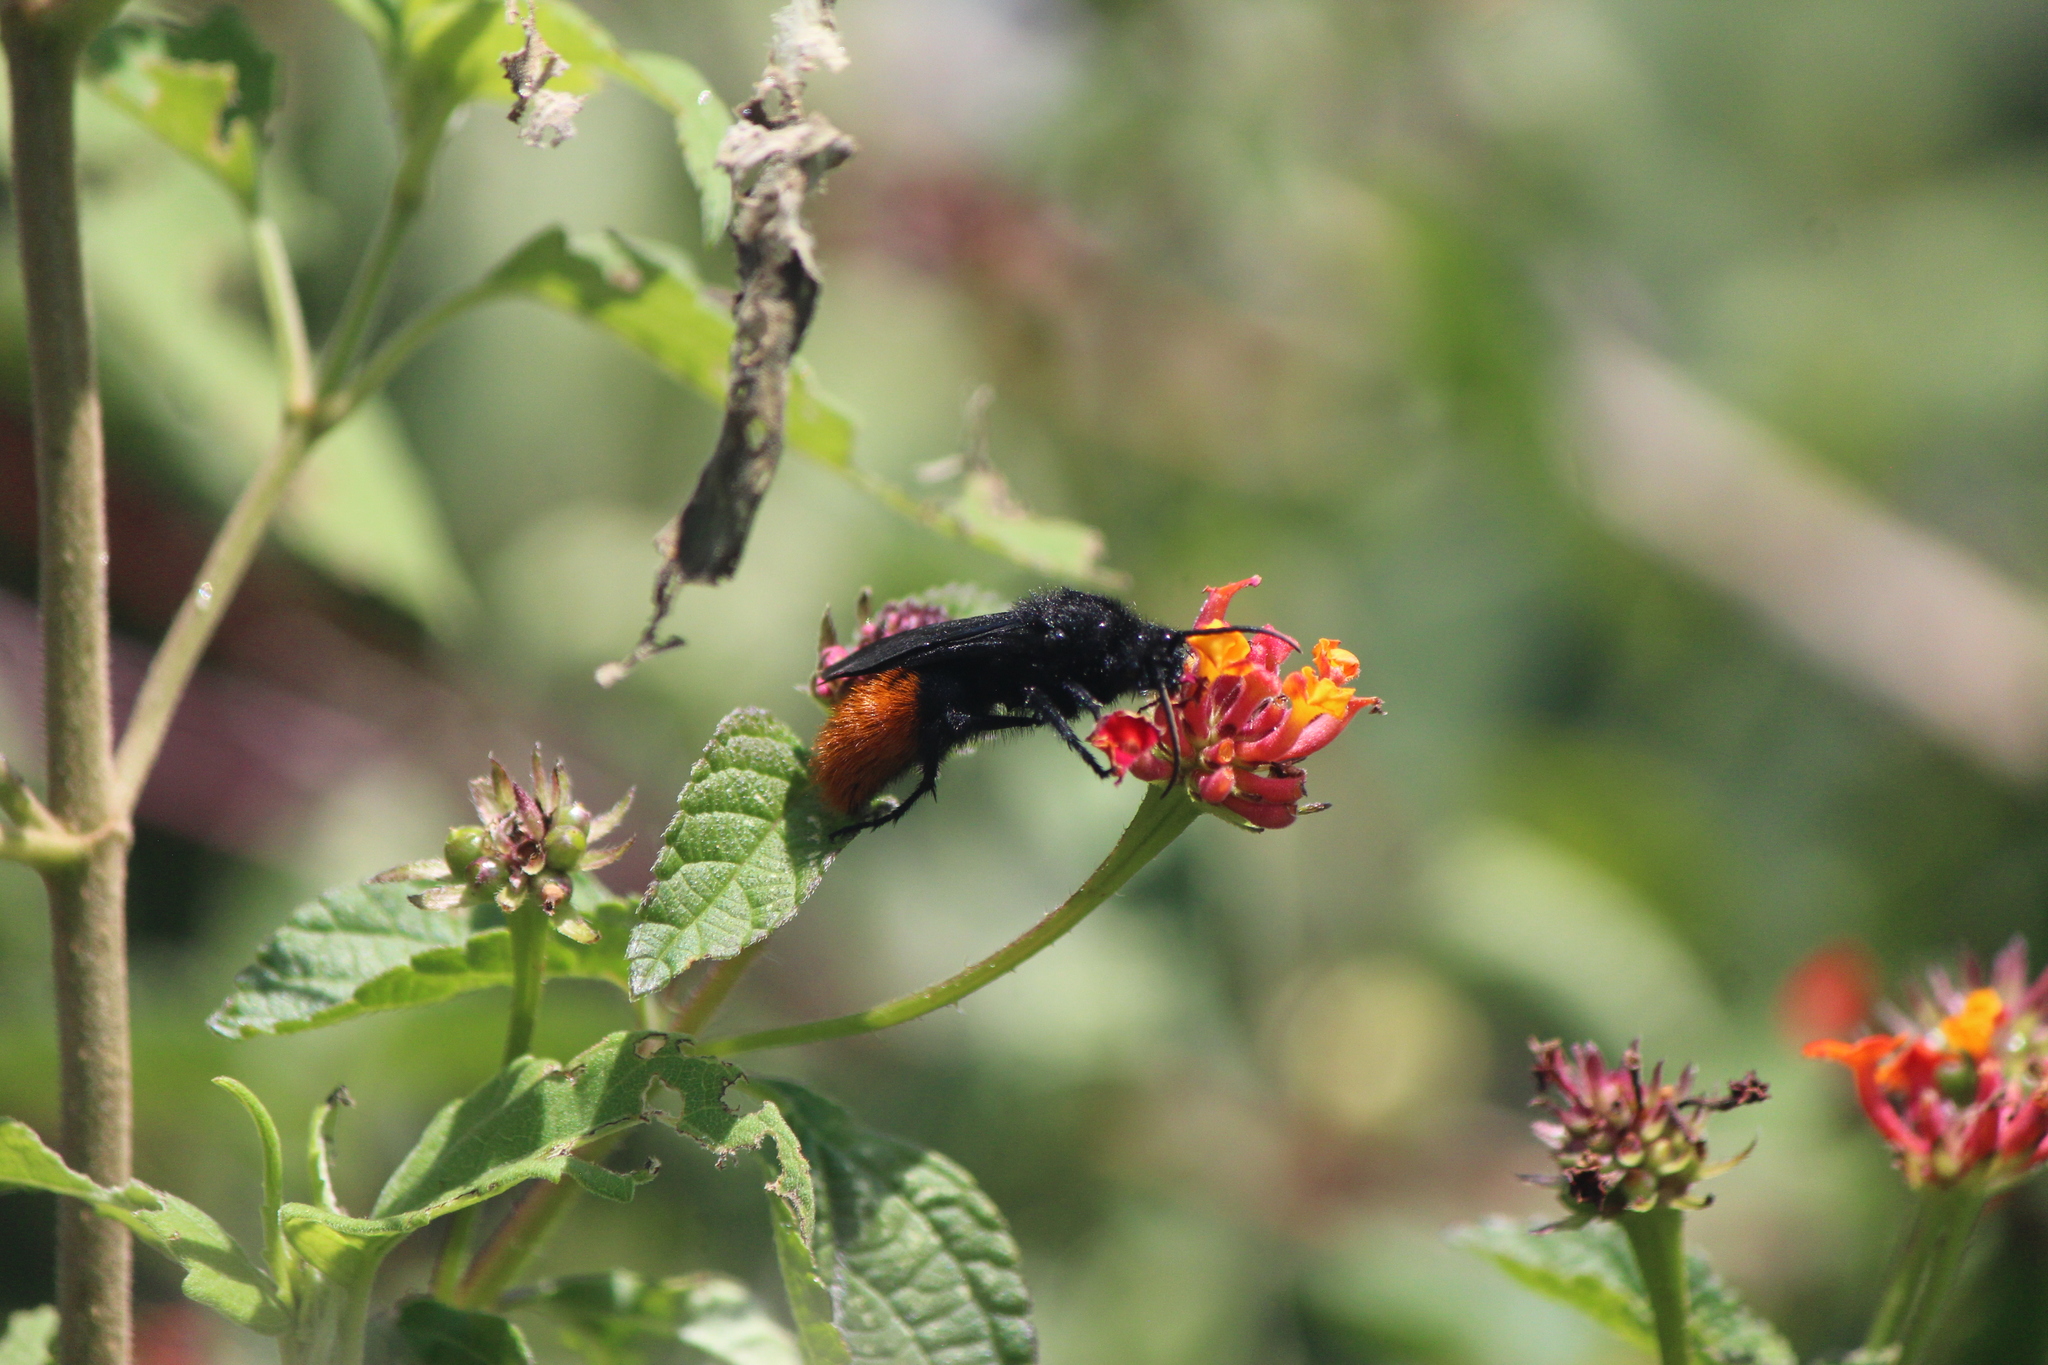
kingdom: Animalia
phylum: Arthropoda
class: Insecta
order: Hymenoptera
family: Mutillidae
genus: Dasymutilla
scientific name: Dasymutilla
